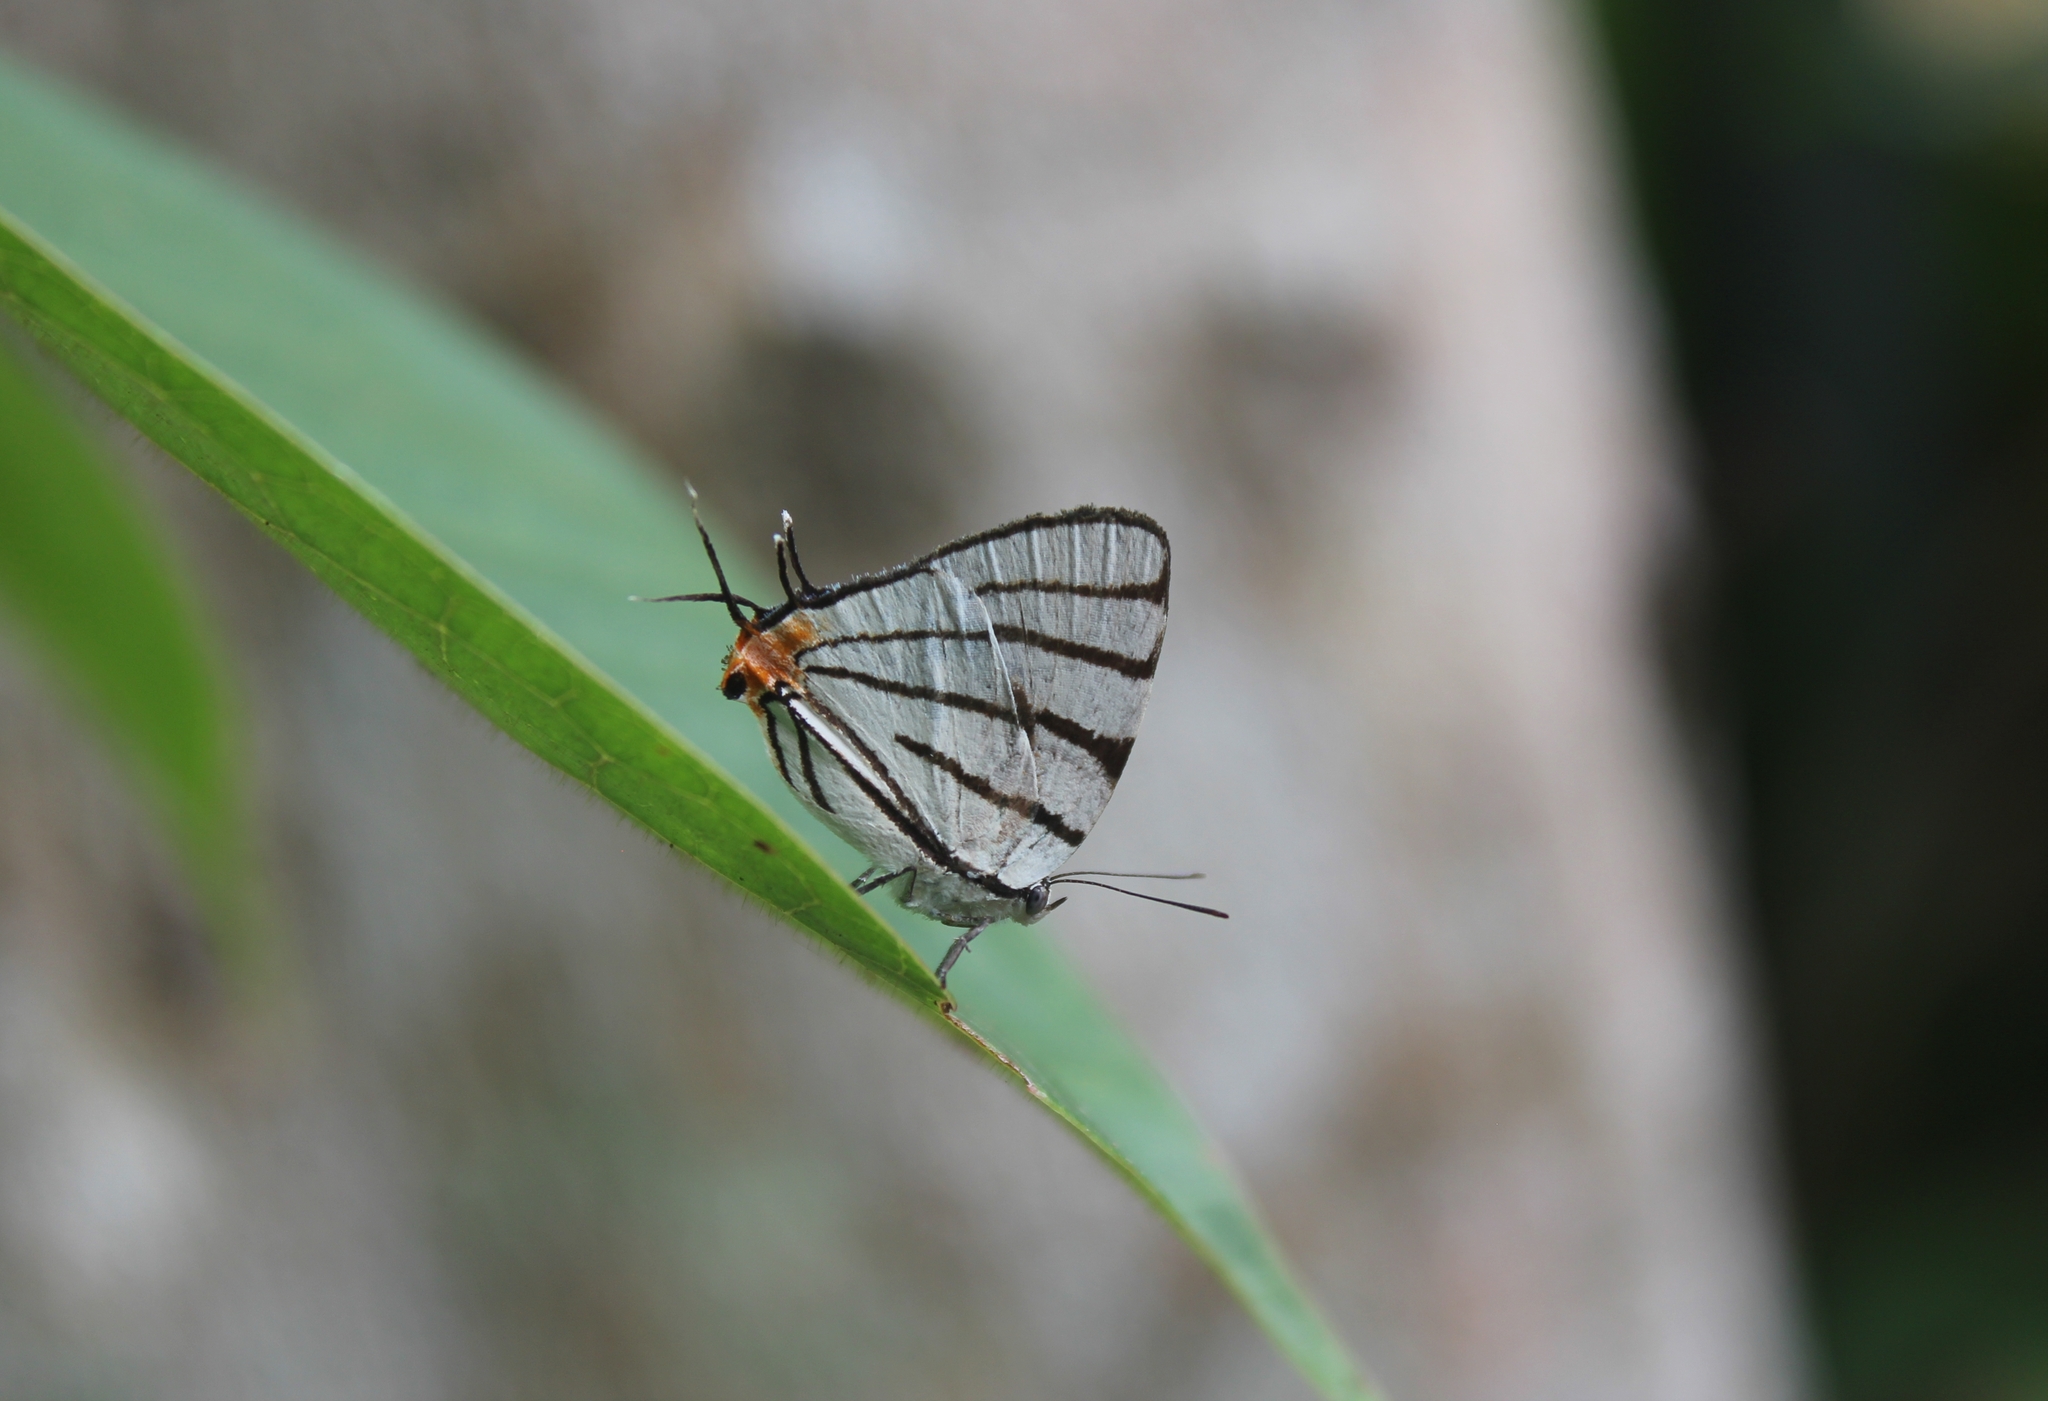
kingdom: Animalia
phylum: Arthropoda
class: Insecta
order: Lepidoptera
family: Lycaenidae
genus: Arawacus
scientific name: Arawacus sito
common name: Fine-lined hairstreak
